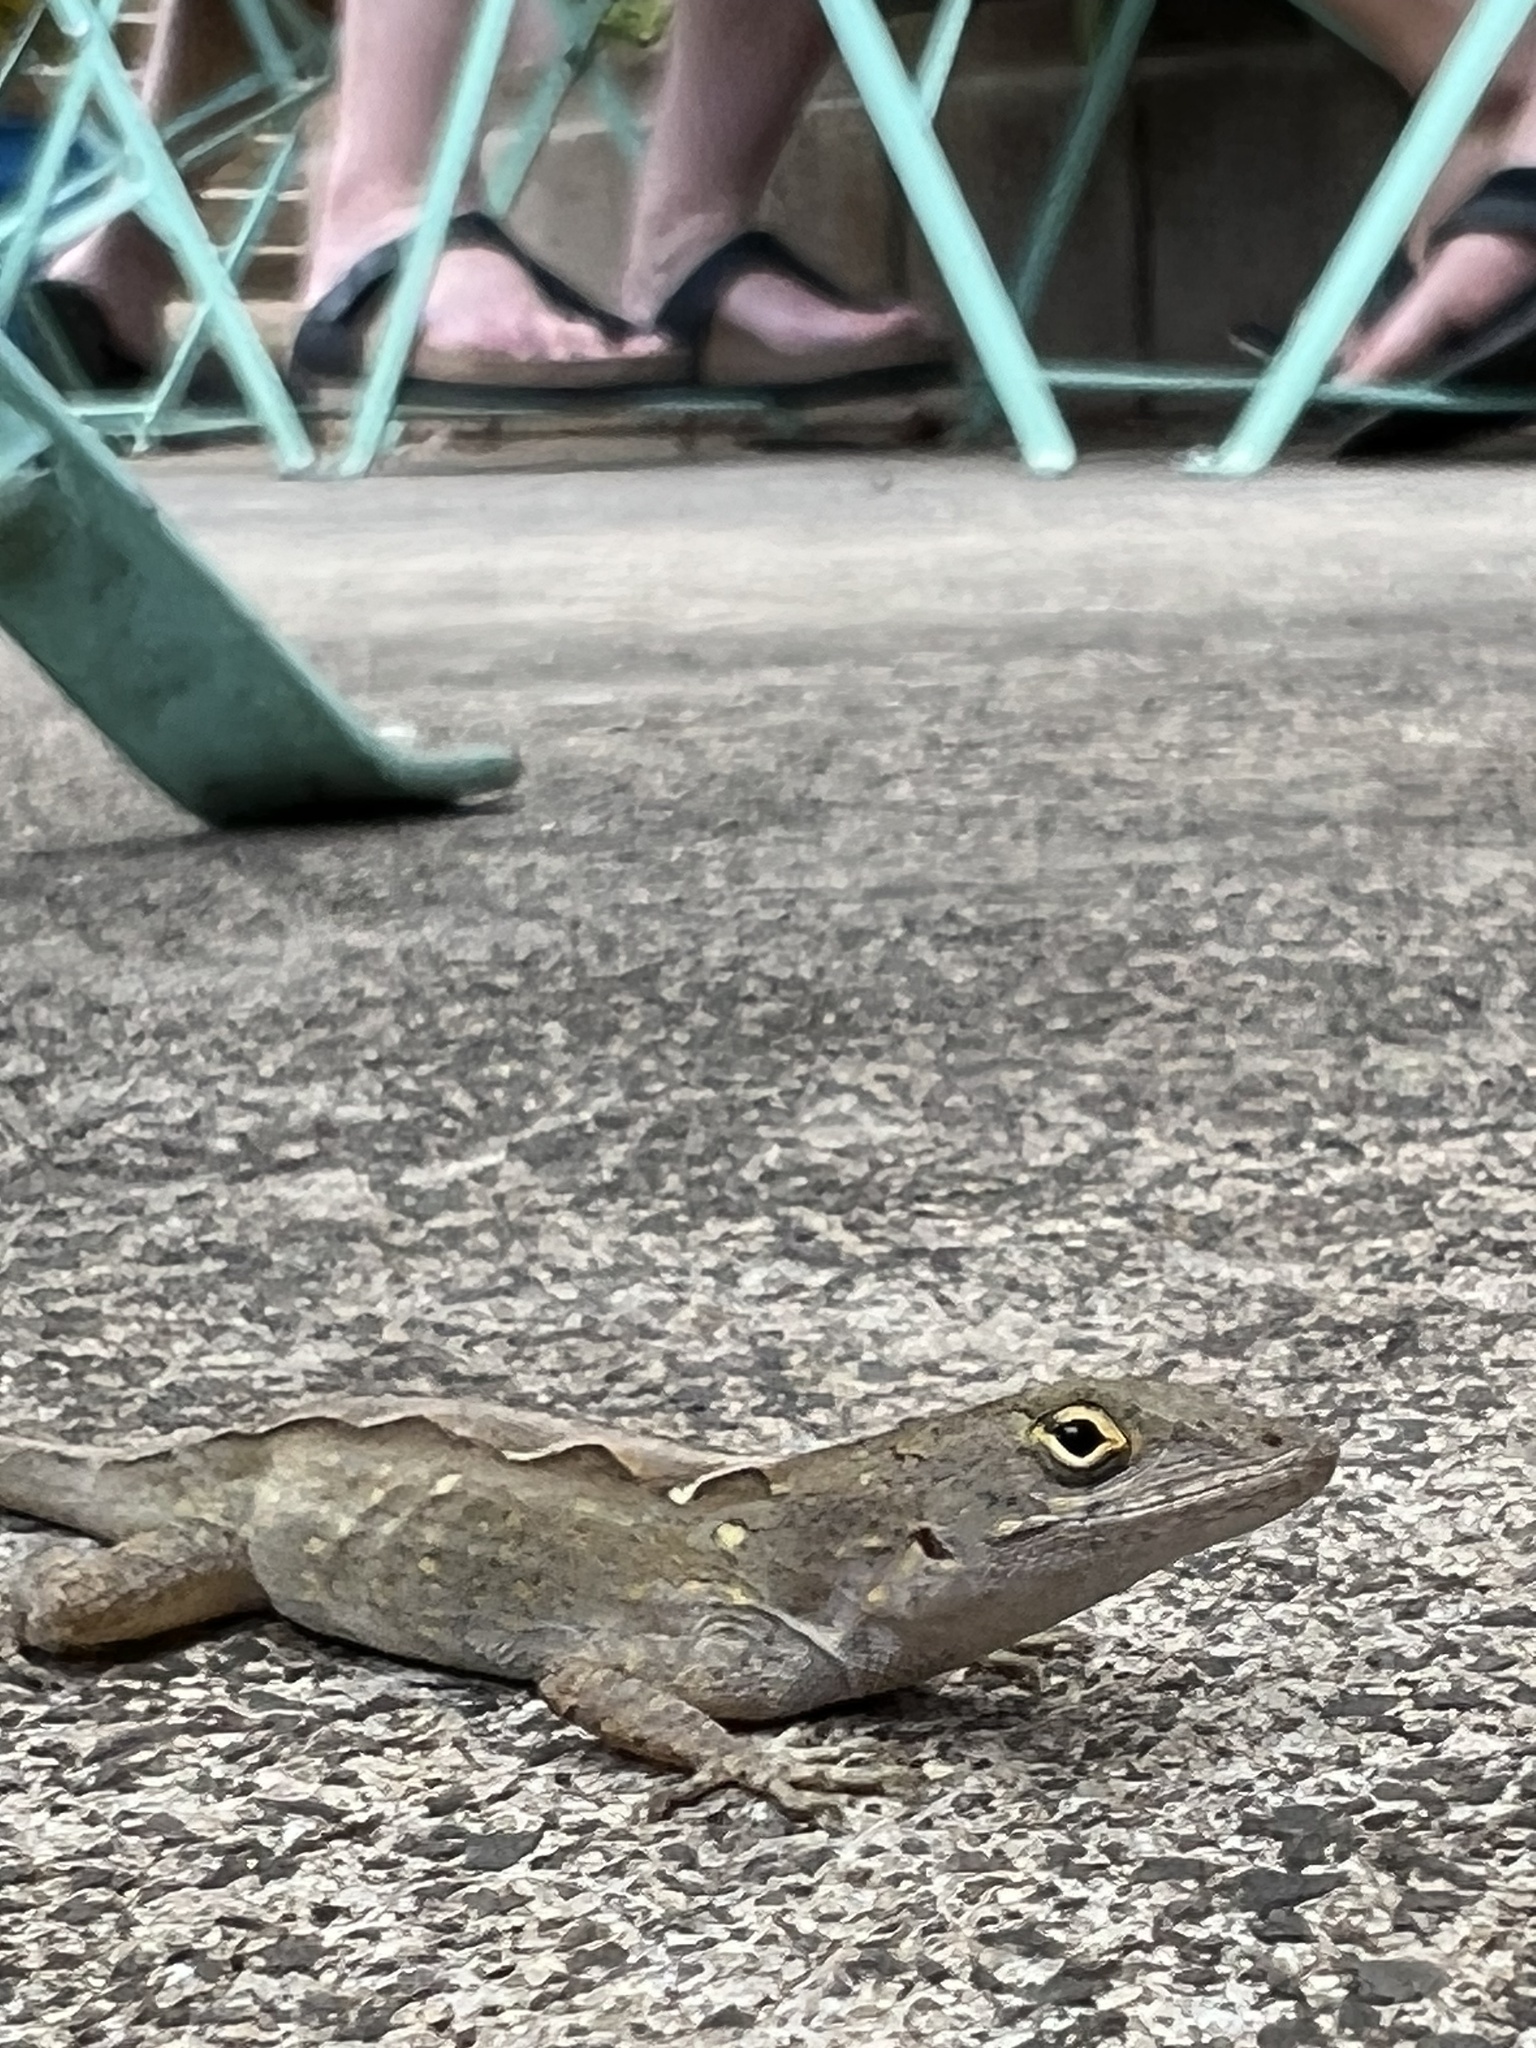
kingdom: Animalia
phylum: Chordata
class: Squamata
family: Dactyloidae
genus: Anolis
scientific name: Anolis sagrei
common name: Brown anole
